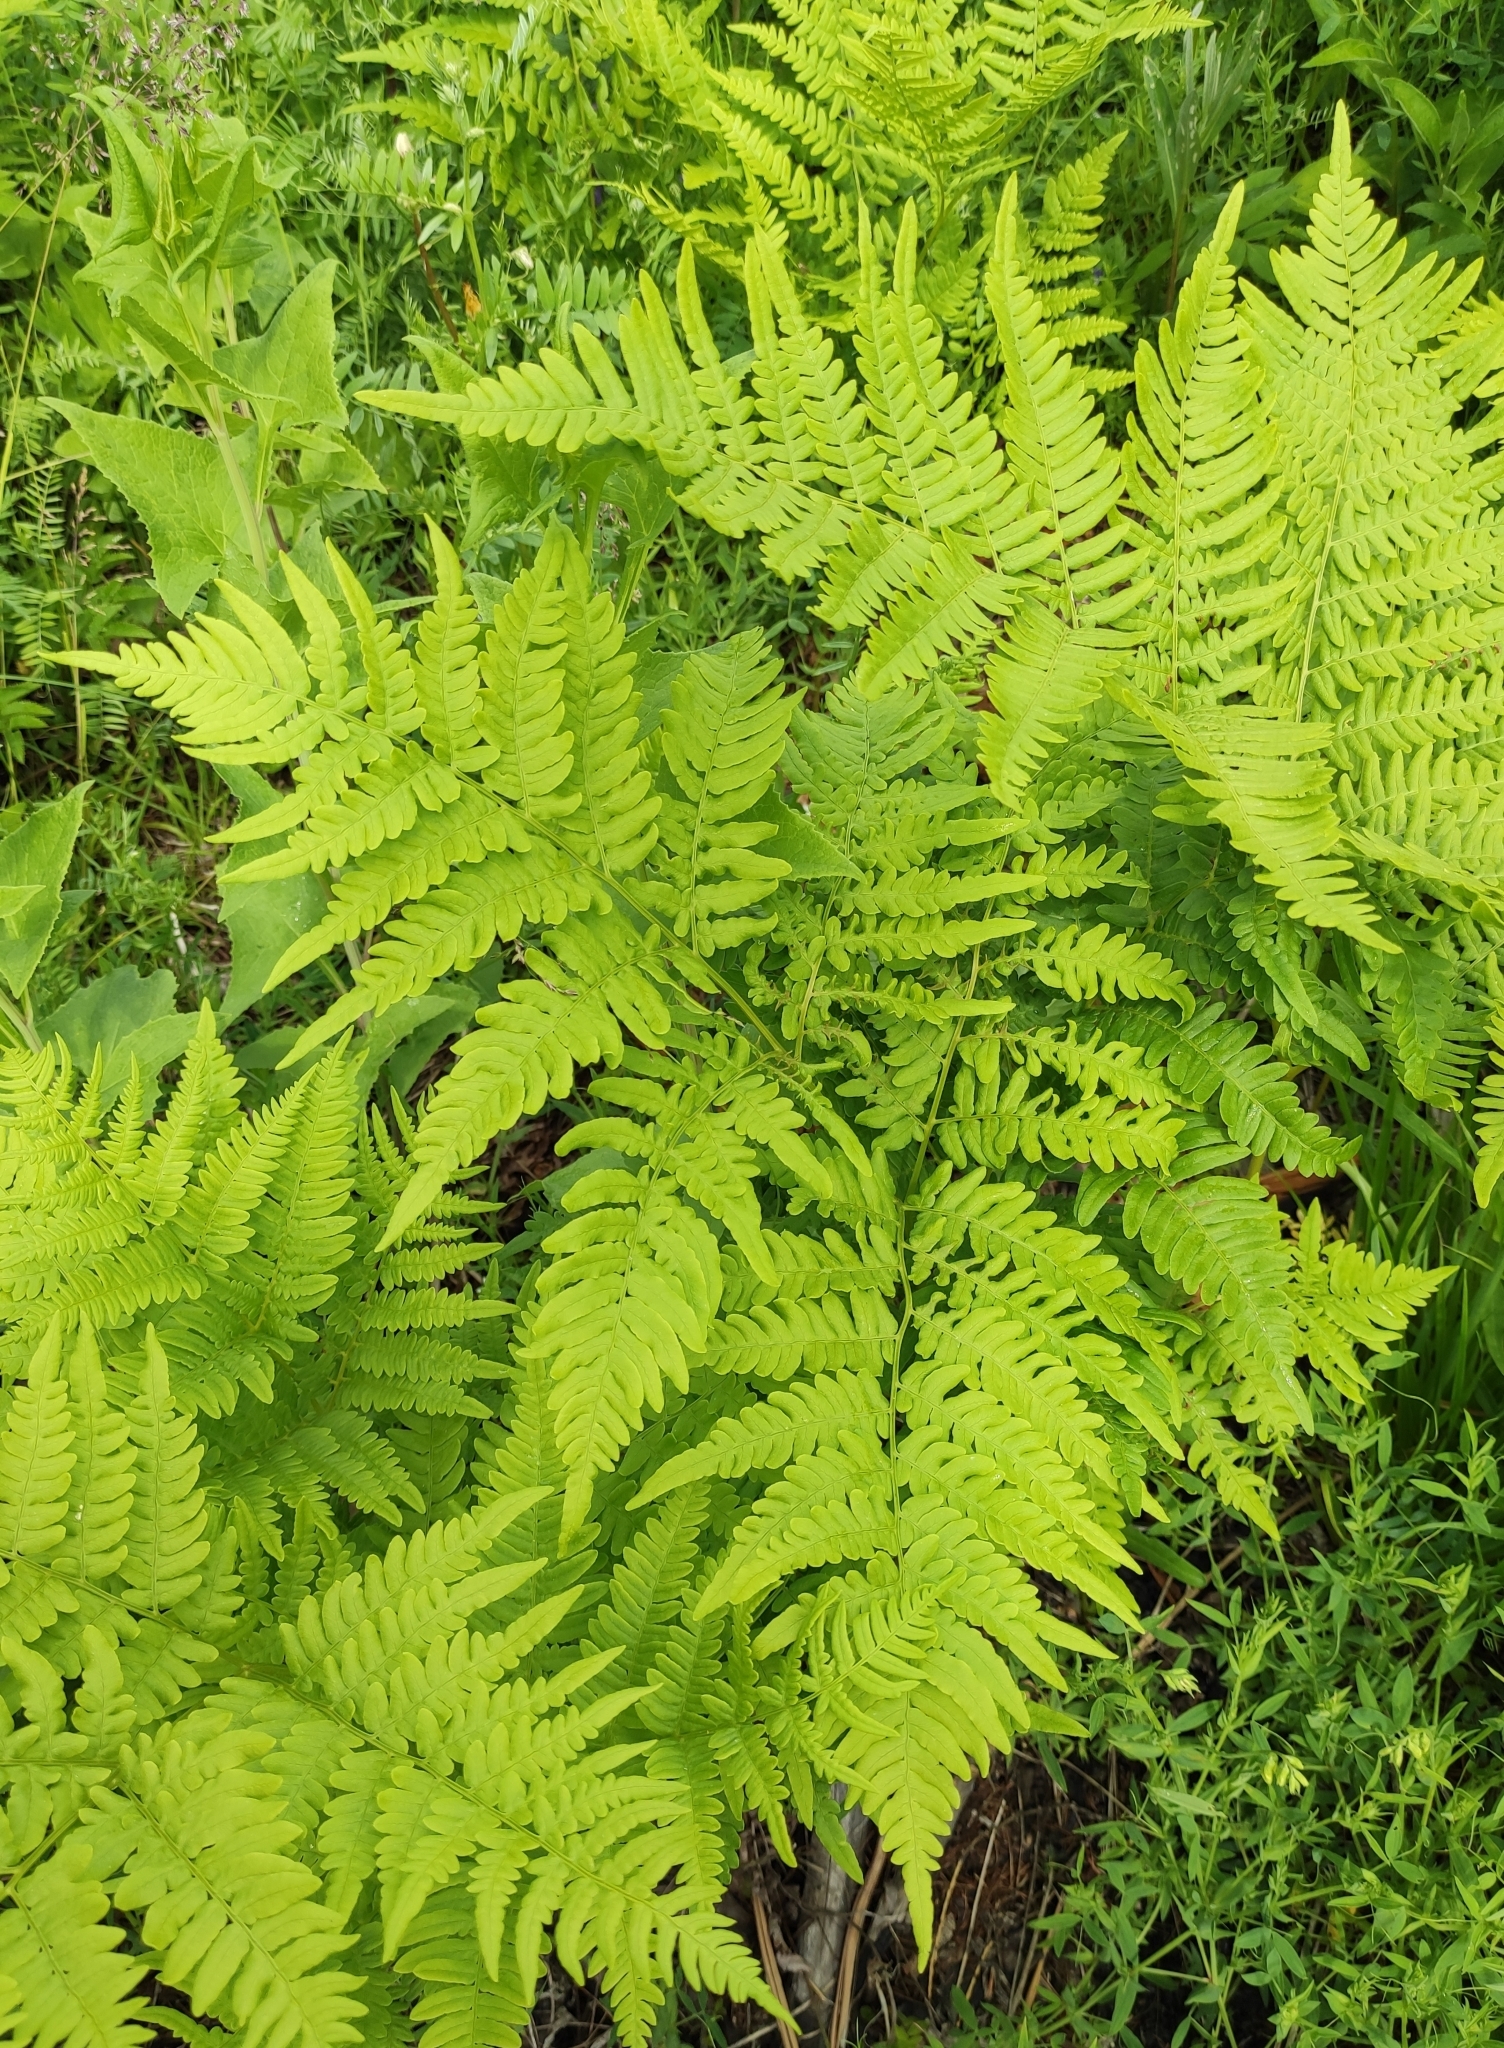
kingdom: Plantae
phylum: Tracheophyta
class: Polypodiopsida
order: Polypodiales
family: Dennstaedtiaceae
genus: Pteridium
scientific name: Pteridium aquilinum
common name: Bracken
